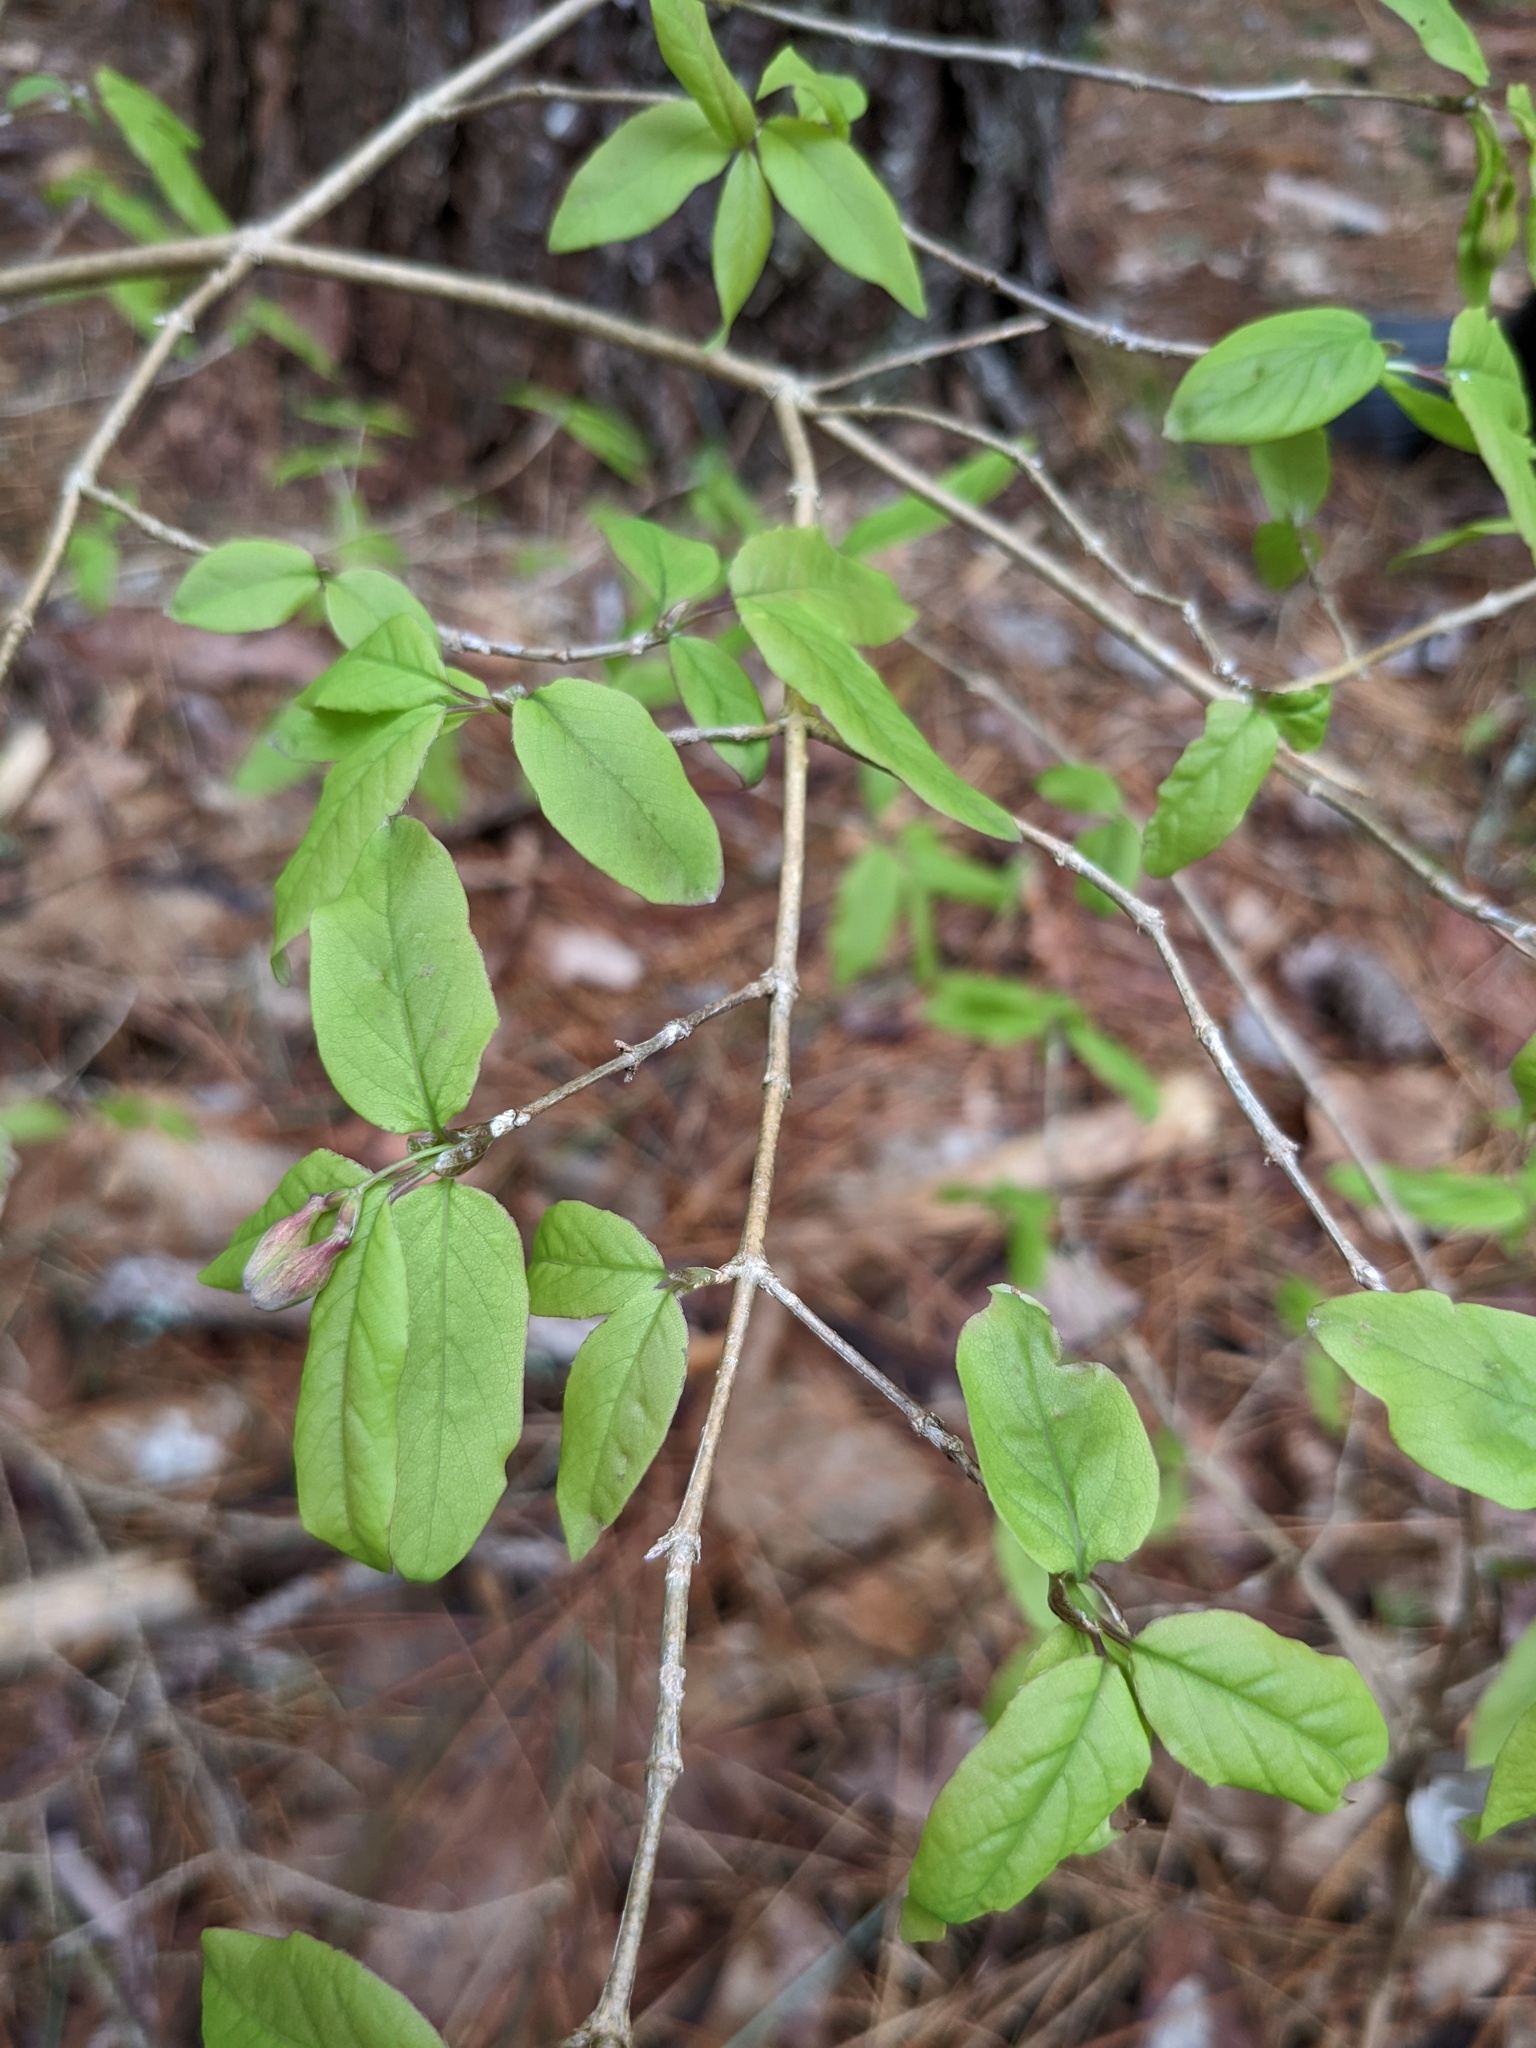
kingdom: Plantae
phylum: Tracheophyta
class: Magnoliopsida
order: Dipsacales
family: Caprifoliaceae
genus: Lonicera
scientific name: Lonicera canadensis
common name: American fly-honeysuckle
